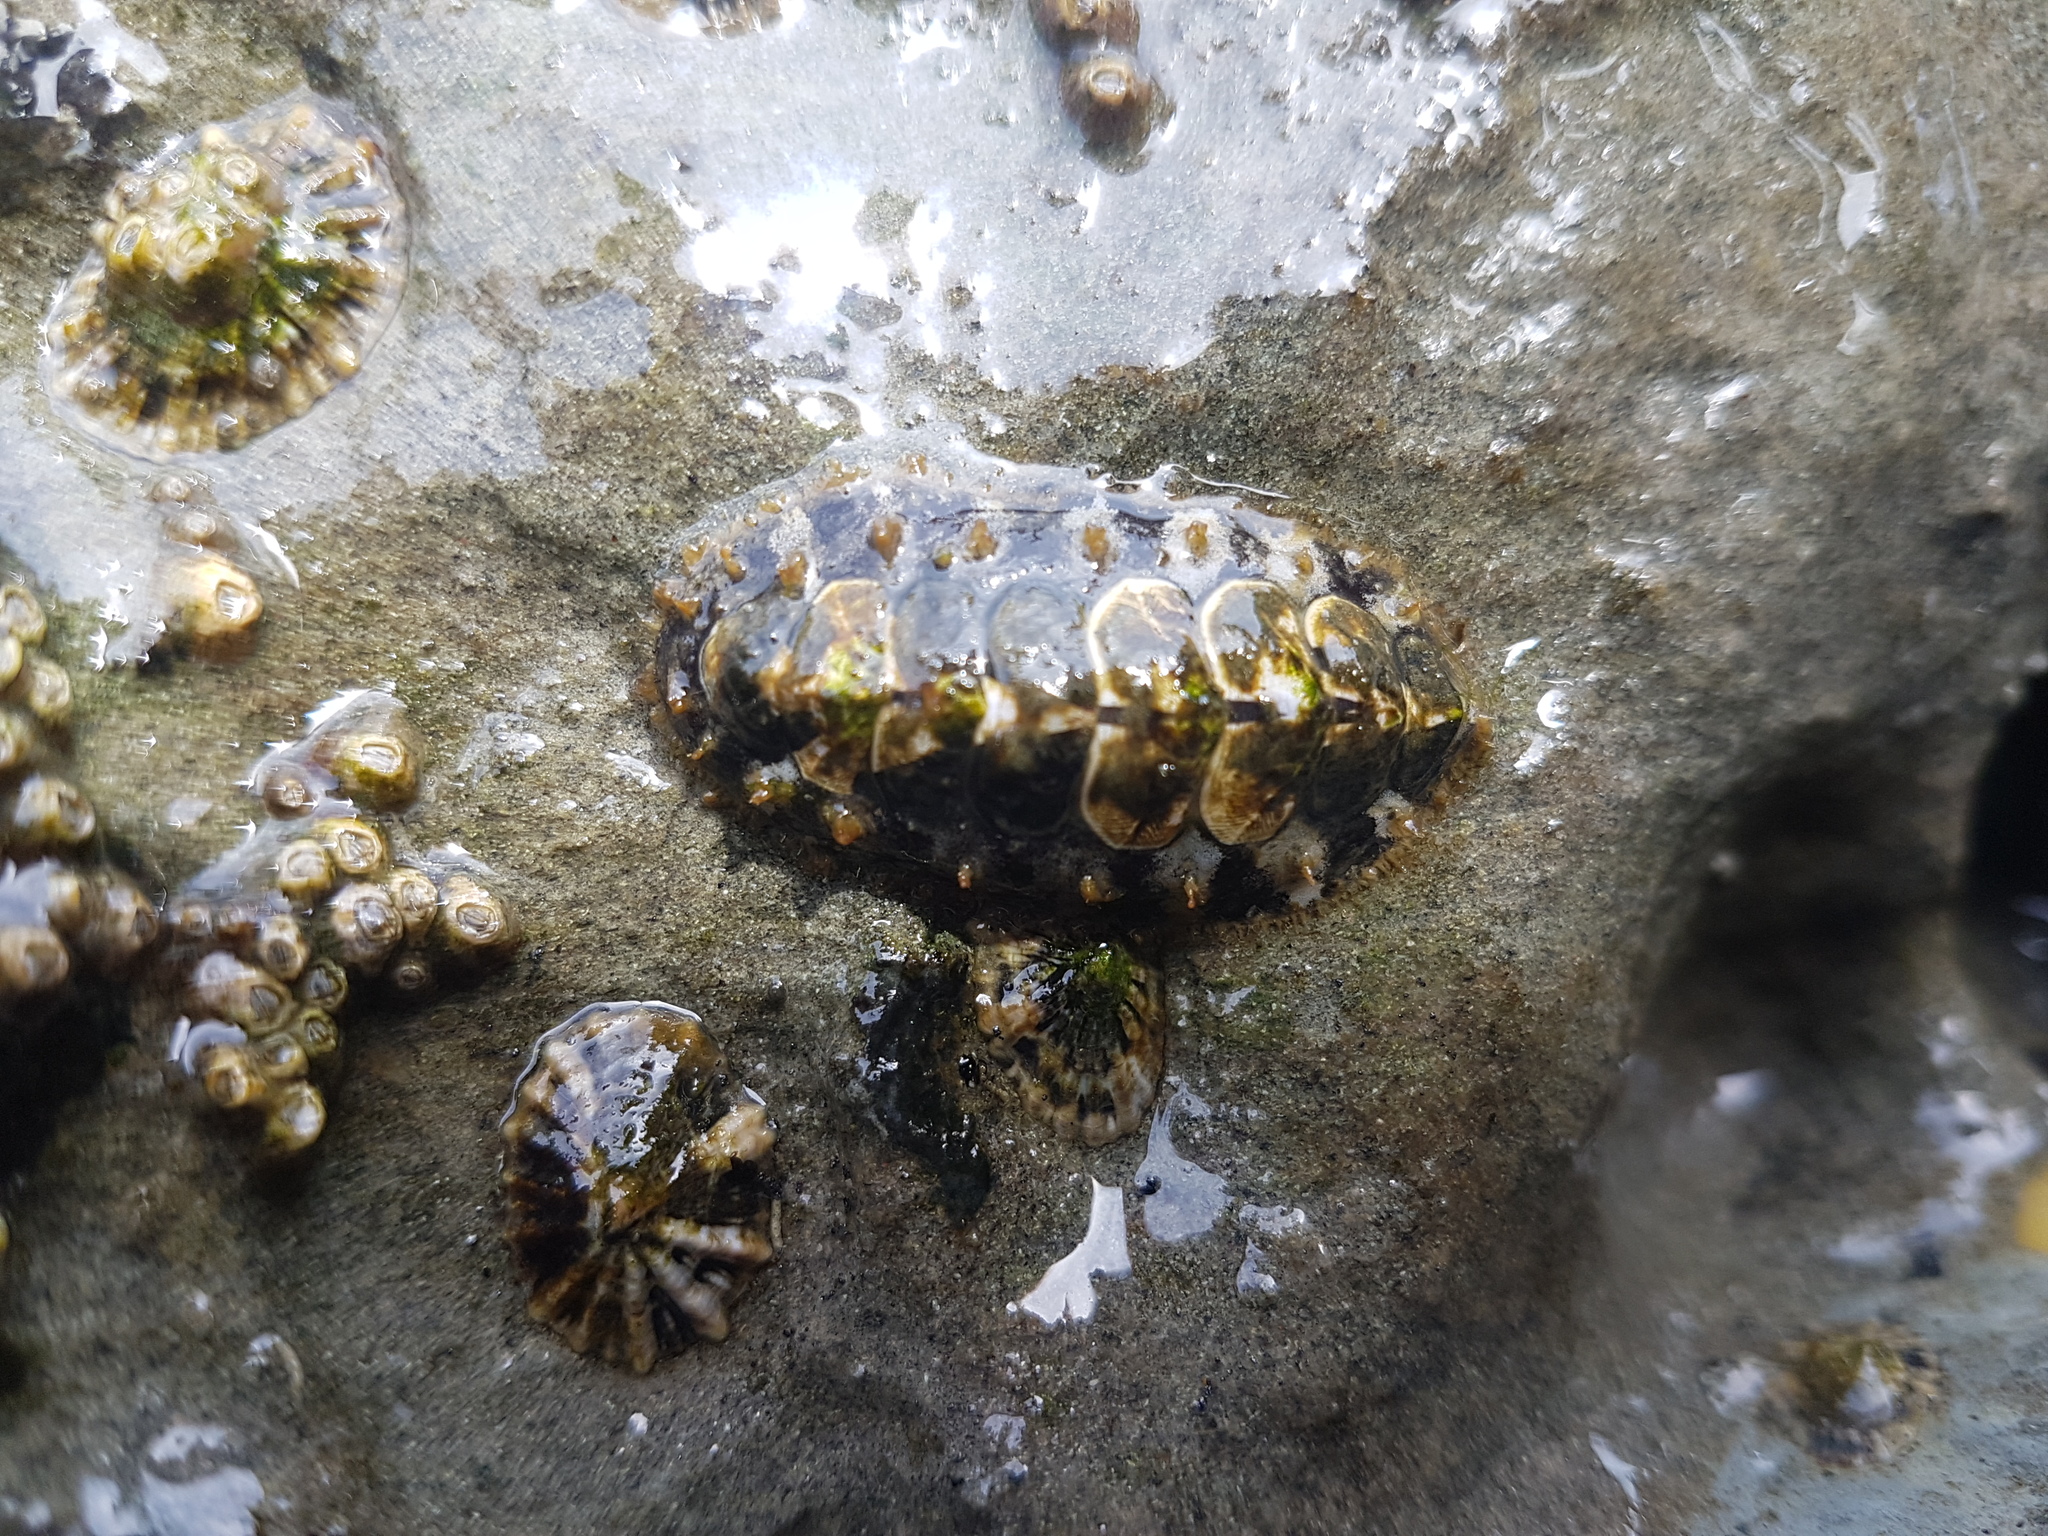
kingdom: Animalia
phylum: Mollusca
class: Polyplacophora
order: Chitonida
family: Mopaliidae
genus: Plaxiphora
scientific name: Plaxiphora caelata
